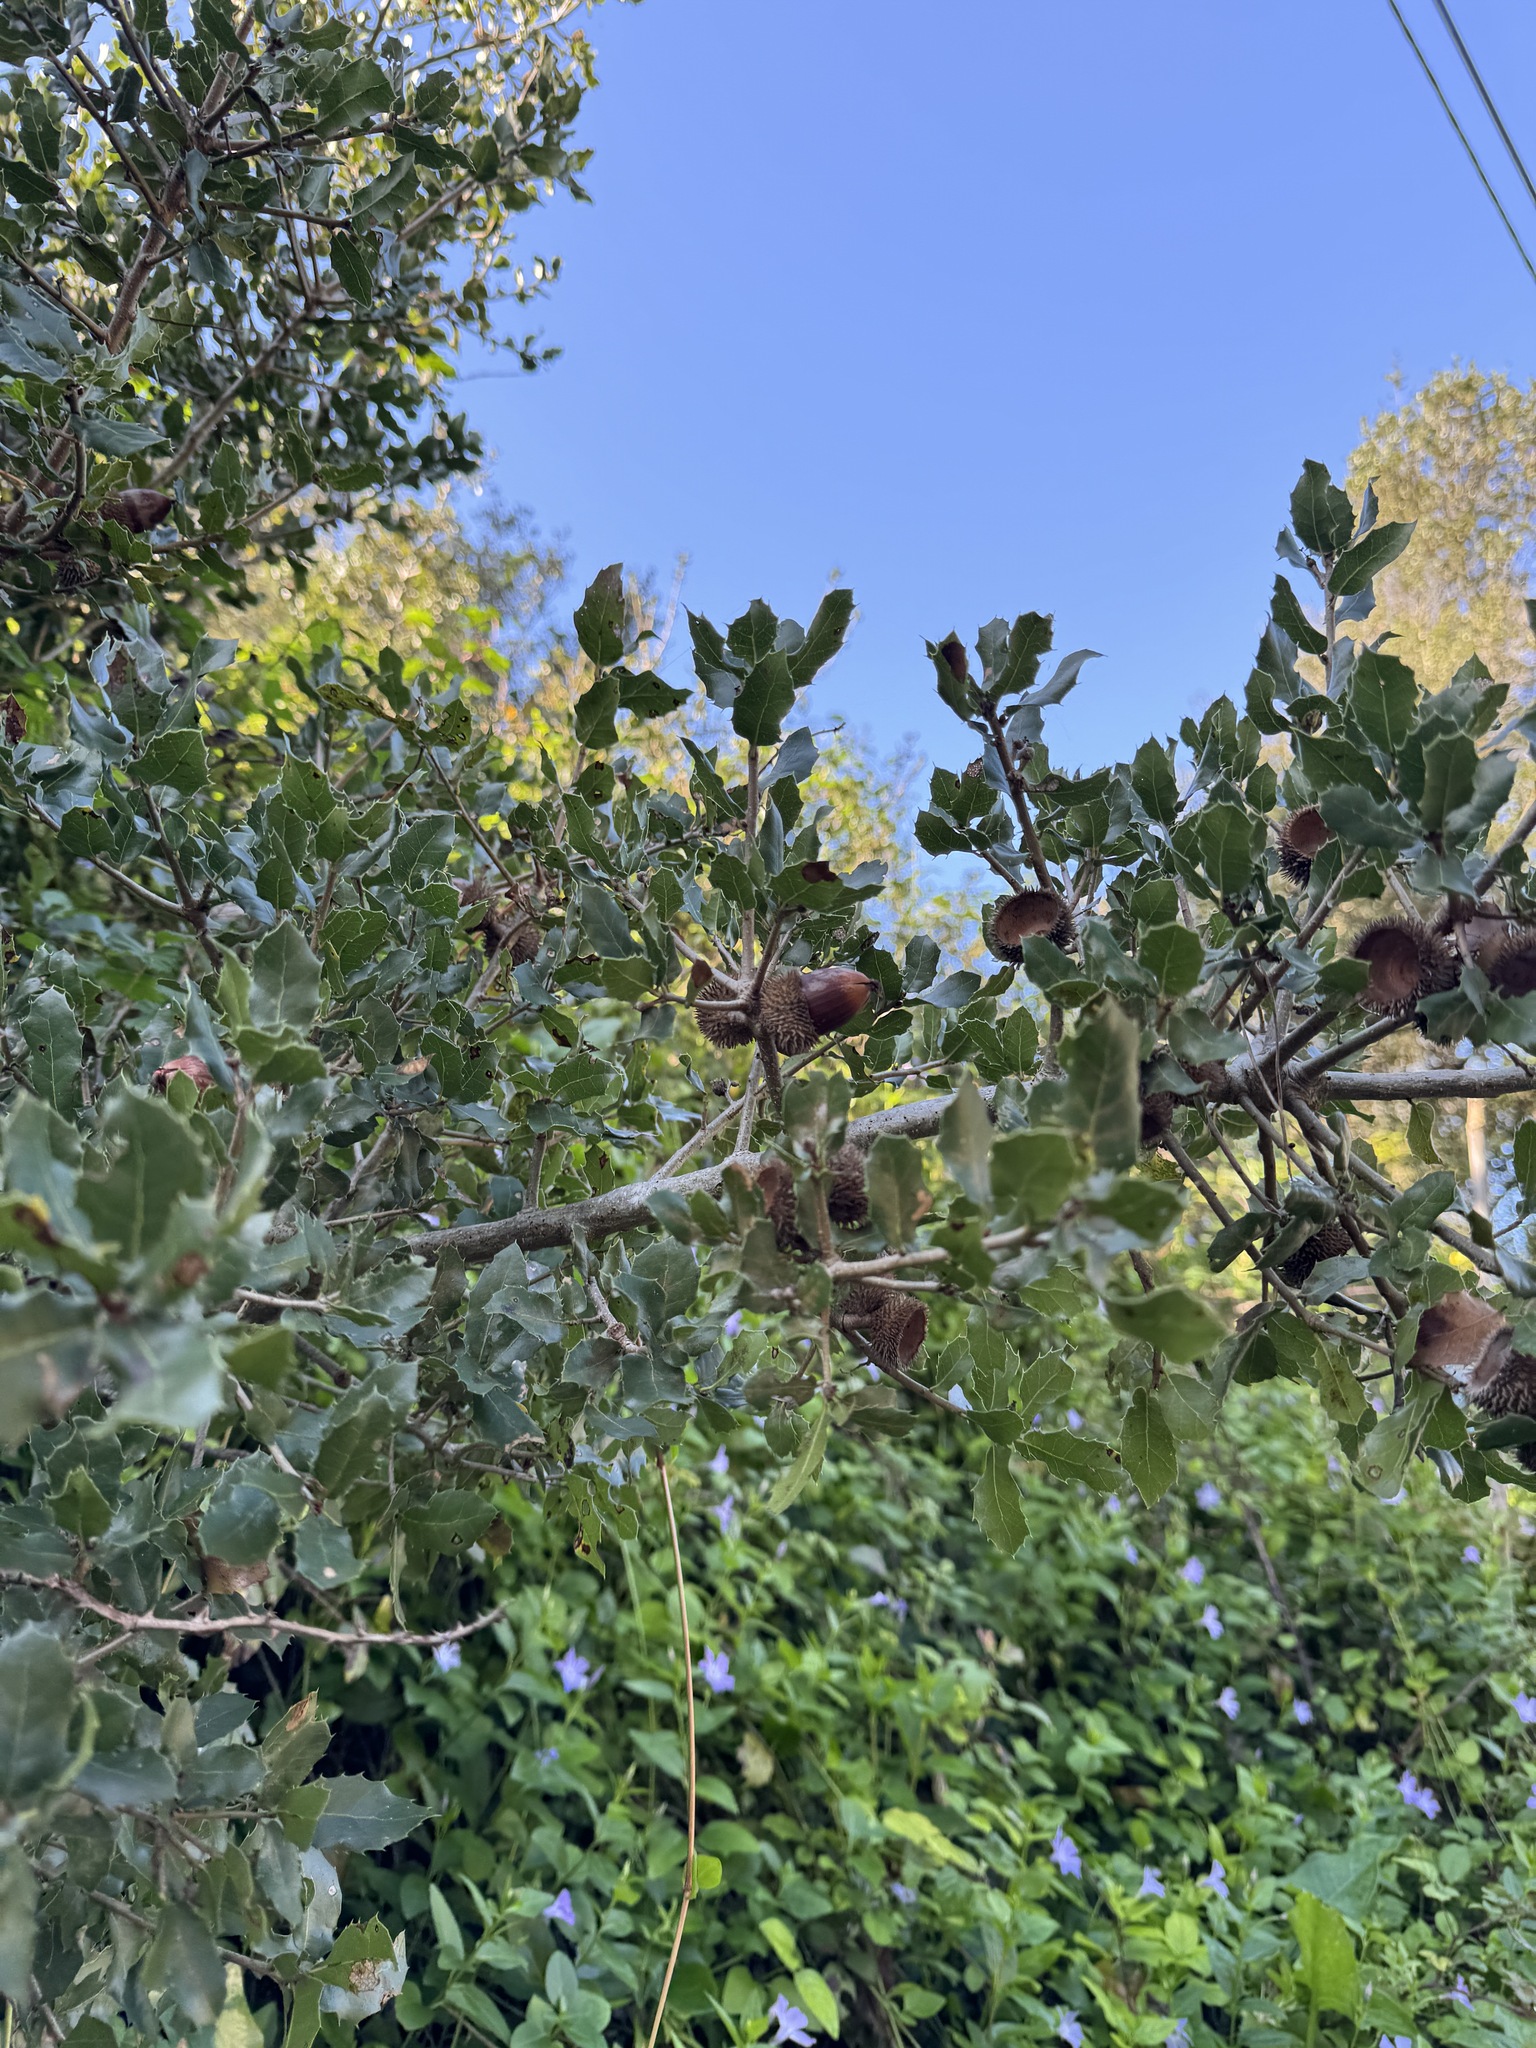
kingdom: Plantae
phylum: Tracheophyta
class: Magnoliopsida
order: Fagales
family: Fagaceae
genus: Quercus
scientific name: Quercus coccifera
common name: Kermes oak
